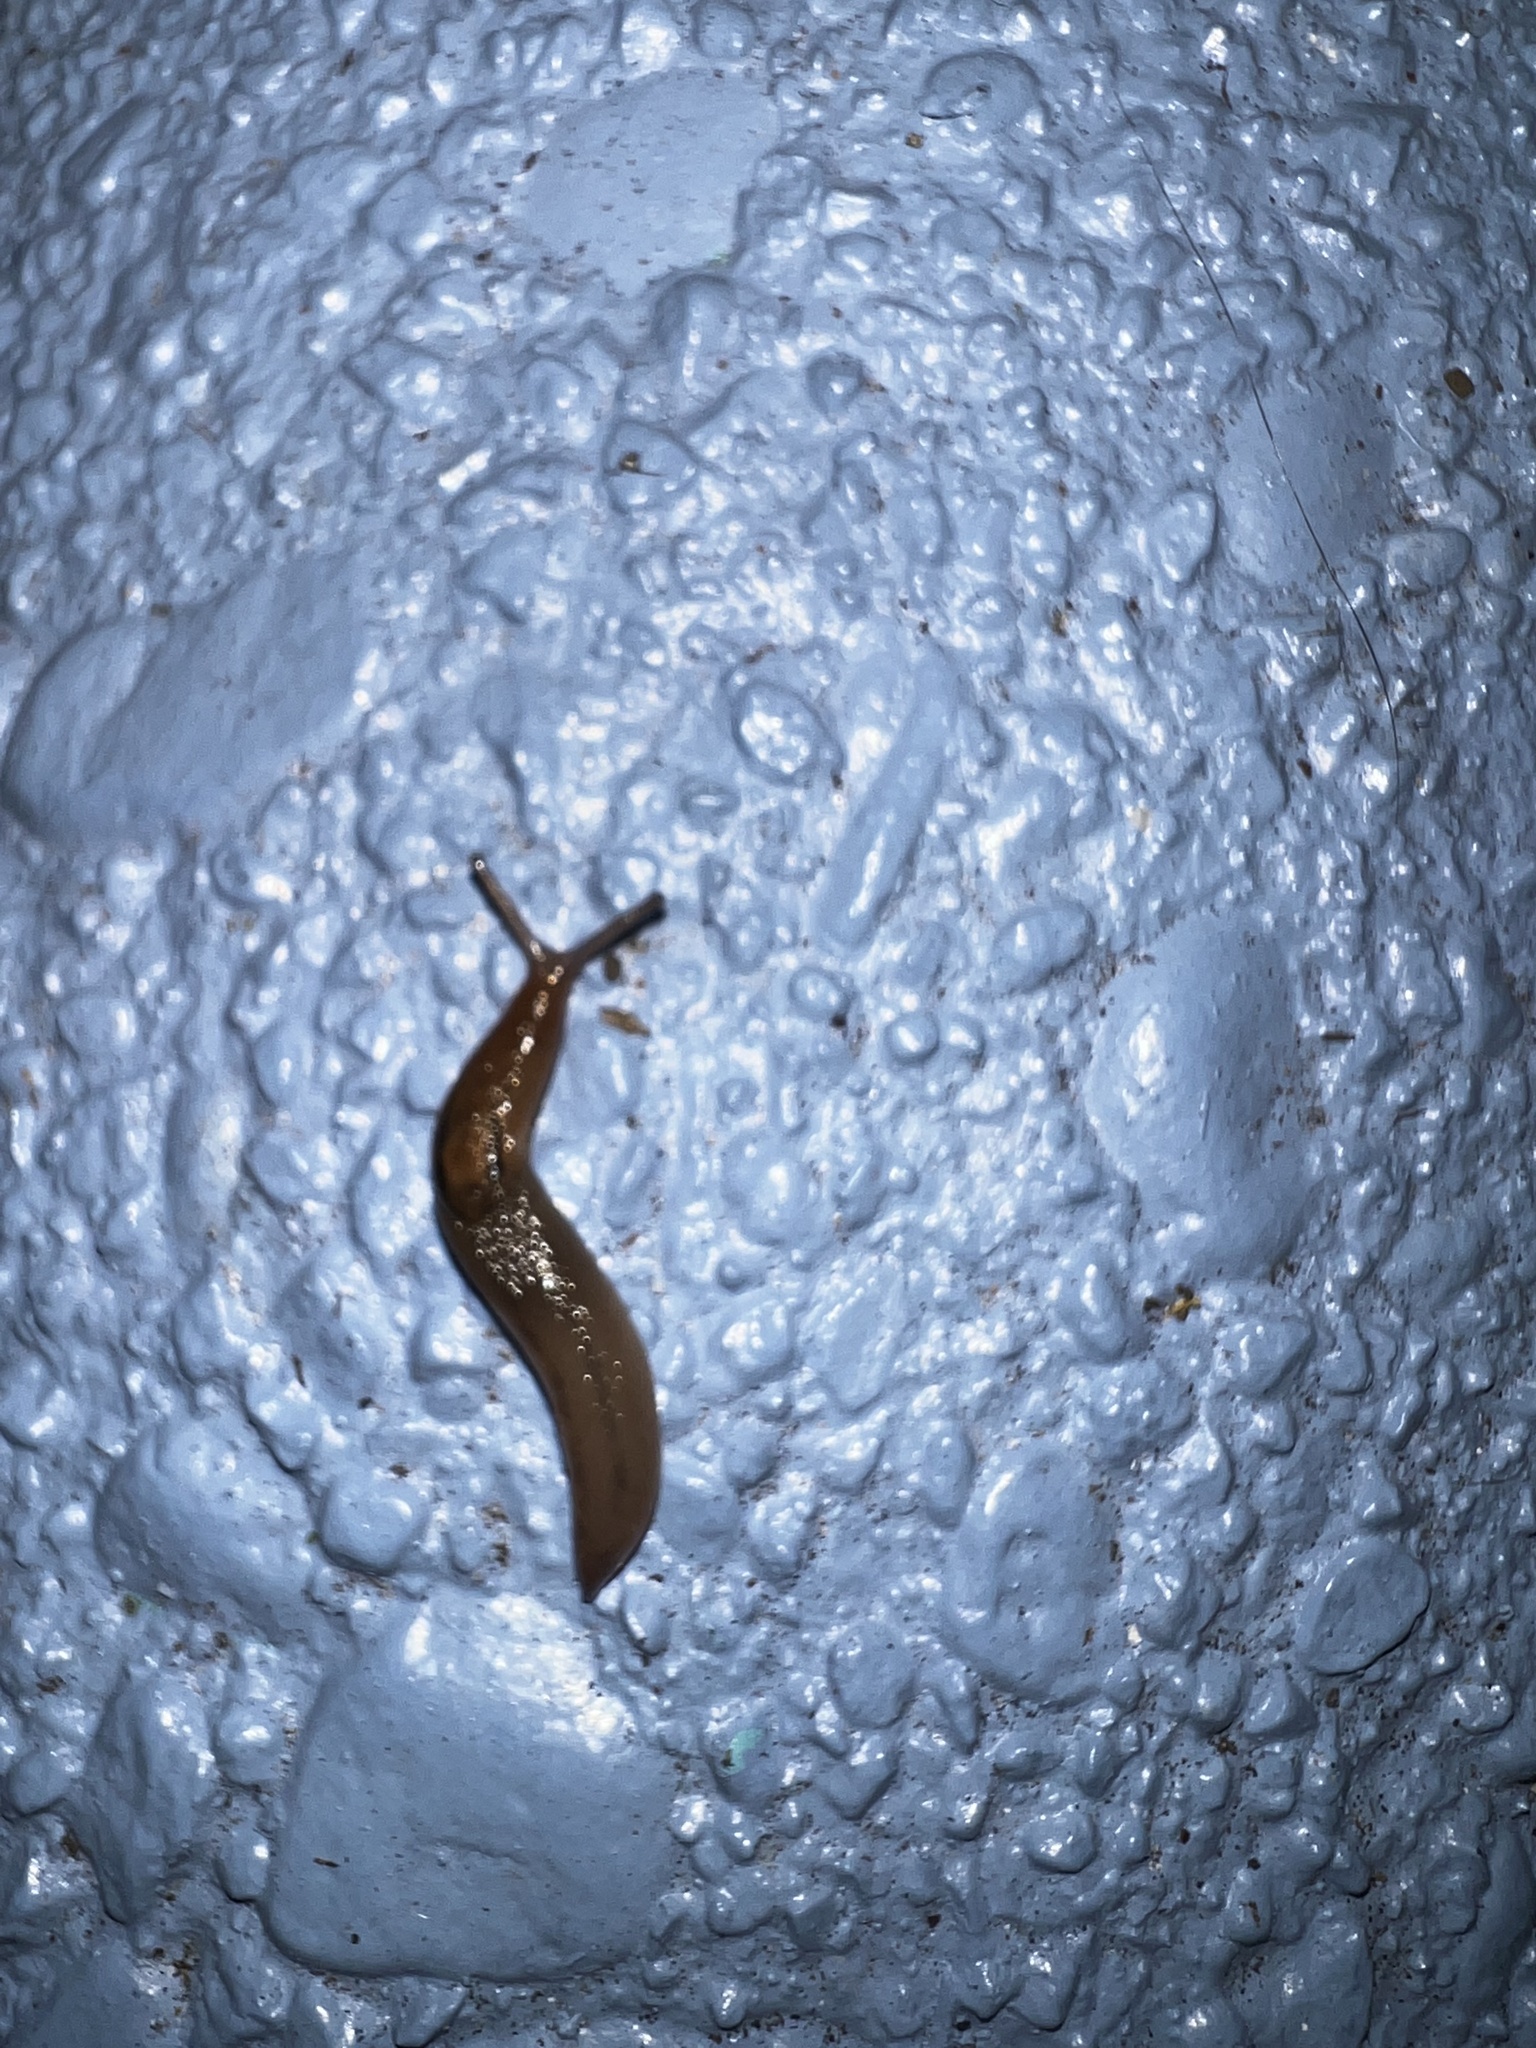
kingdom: Animalia
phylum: Mollusca
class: Gastropoda
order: Stylommatophora
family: Limacidae
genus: Ambigolimax
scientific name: Ambigolimax
